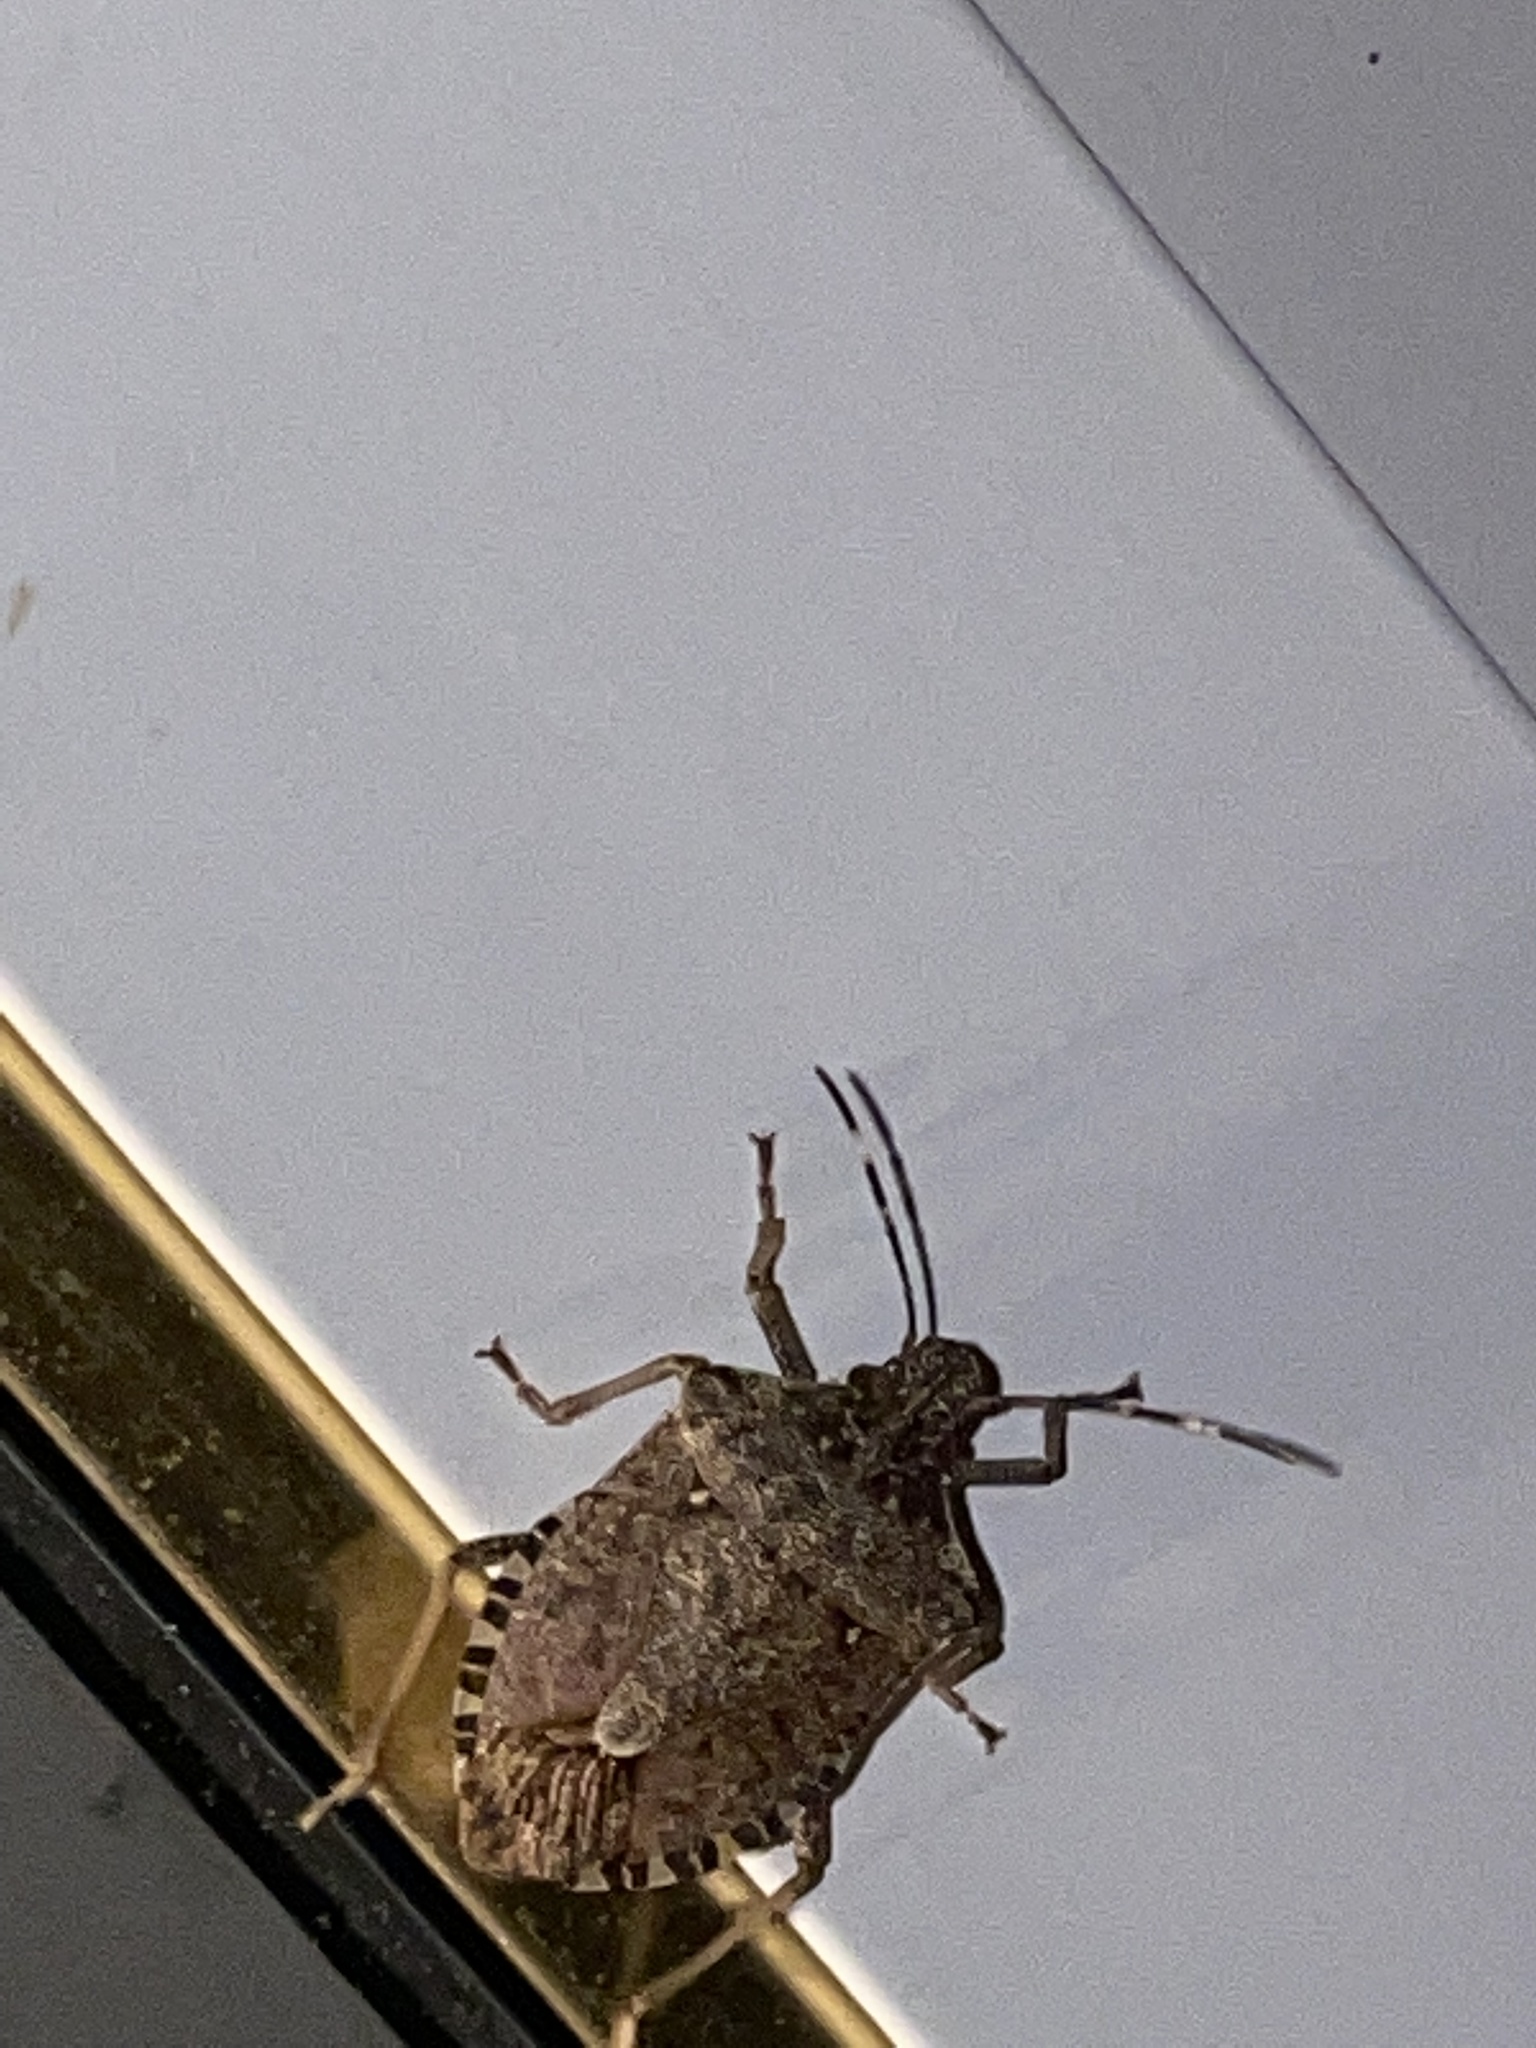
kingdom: Animalia
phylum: Arthropoda
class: Insecta
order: Hemiptera
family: Pentatomidae
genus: Halyomorpha
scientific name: Halyomorpha halys
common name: Brown marmorated stink bug
